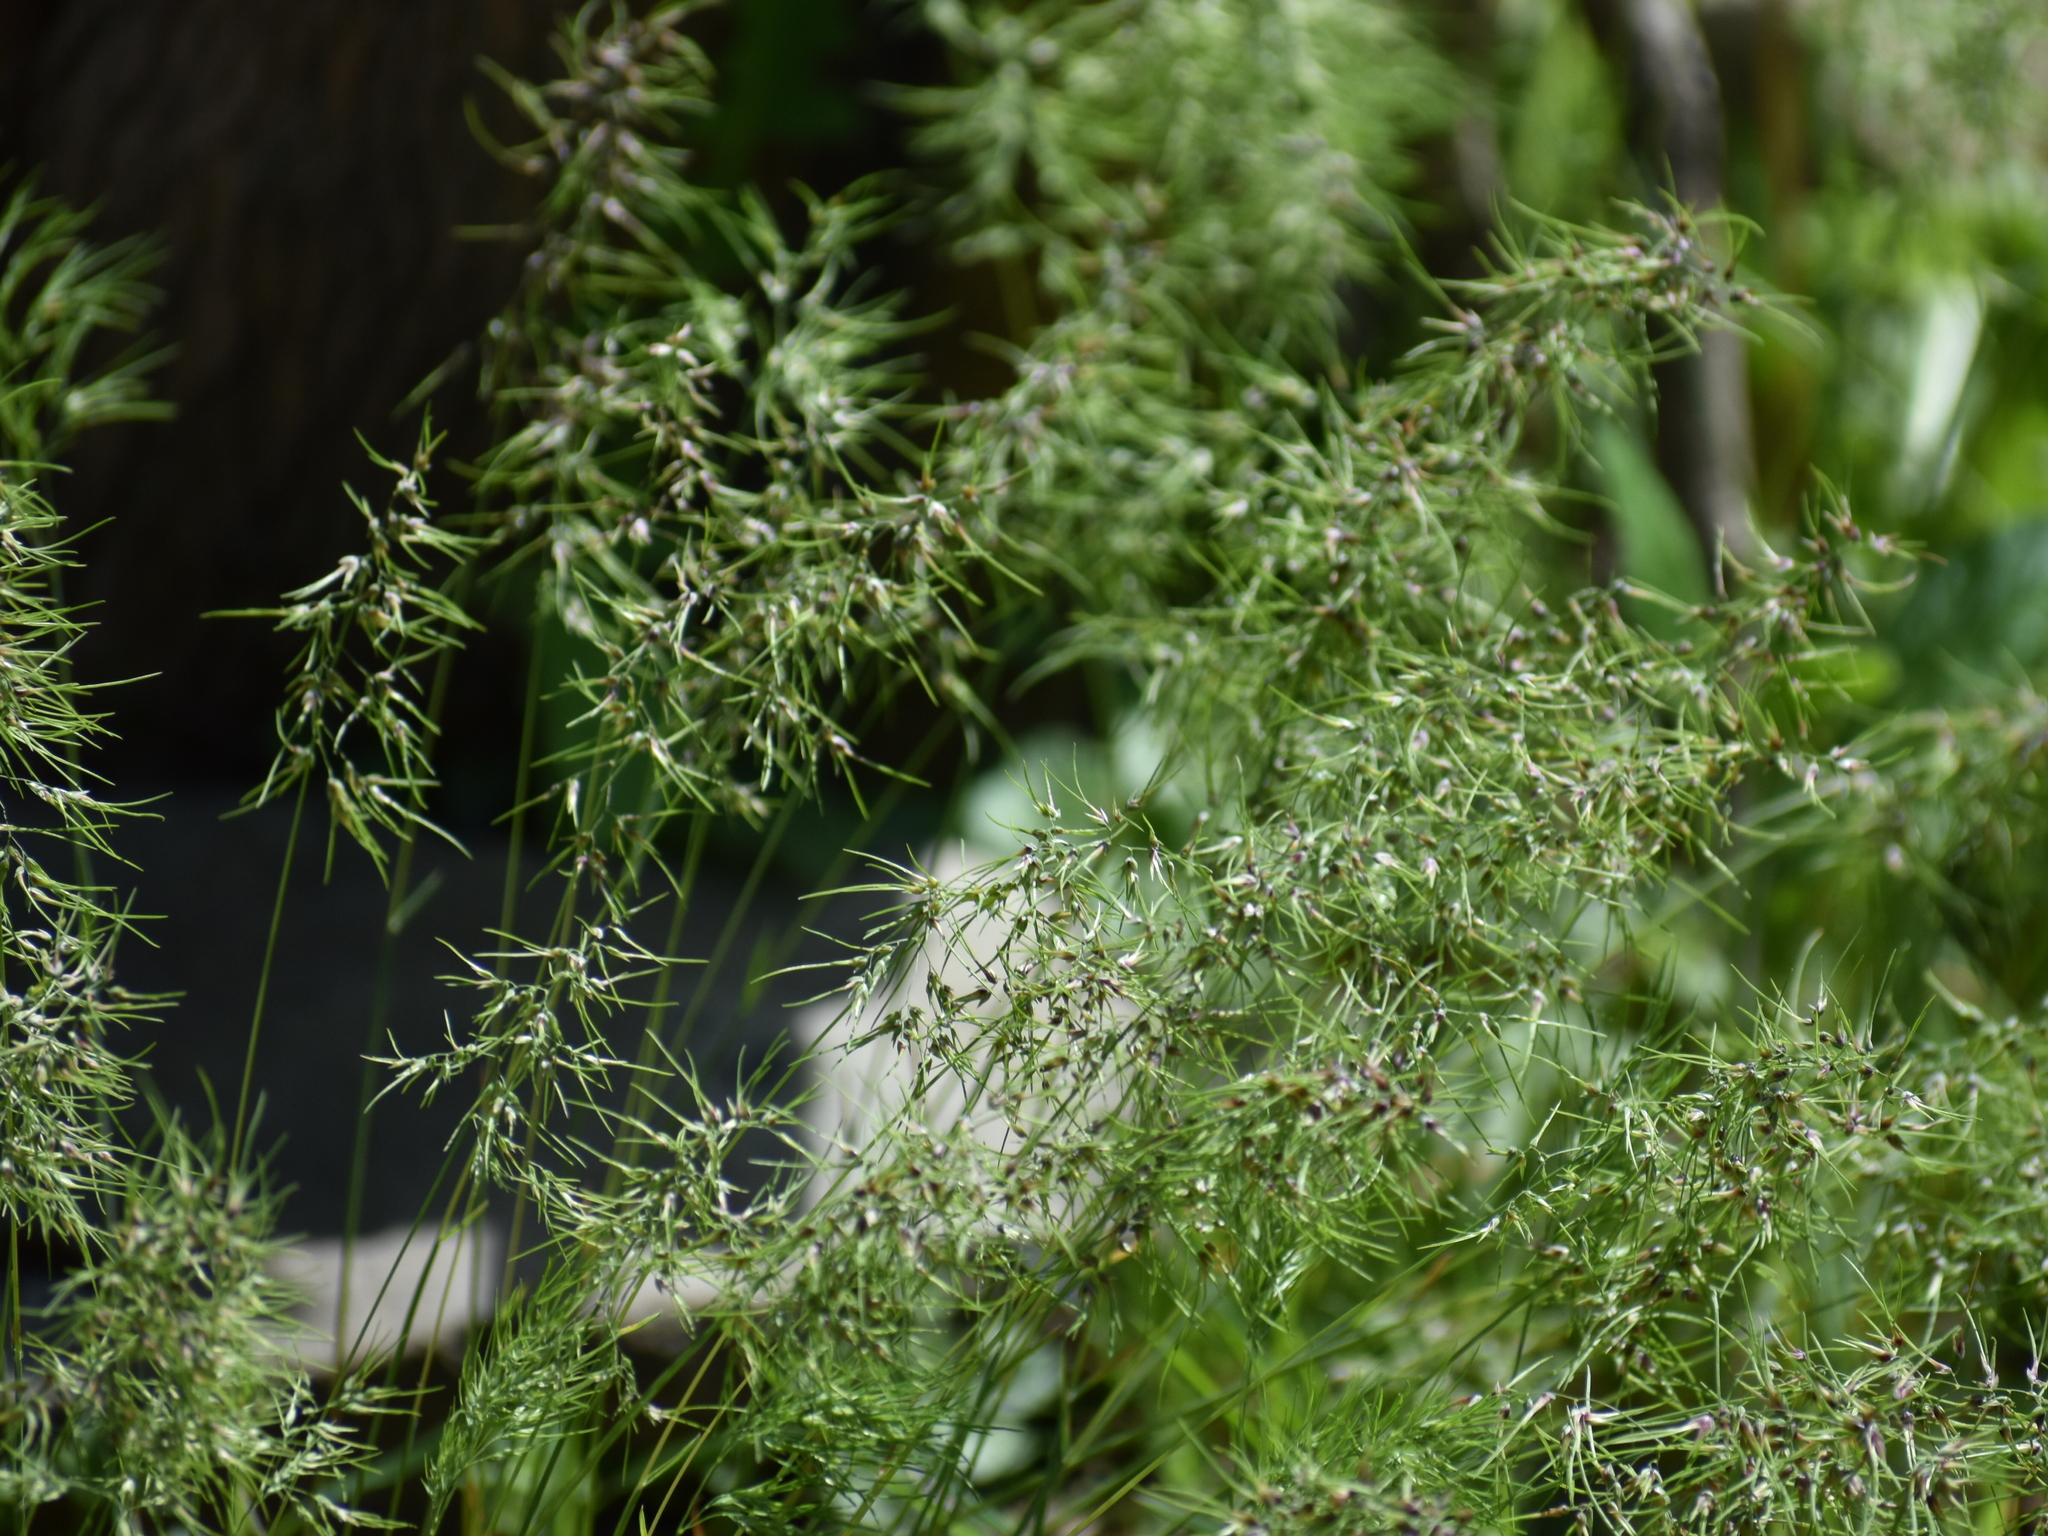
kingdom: Plantae
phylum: Tracheophyta
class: Liliopsida
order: Poales
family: Poaceae
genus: Poa
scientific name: Poa bulbosa
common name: Bulbous bluegrass
